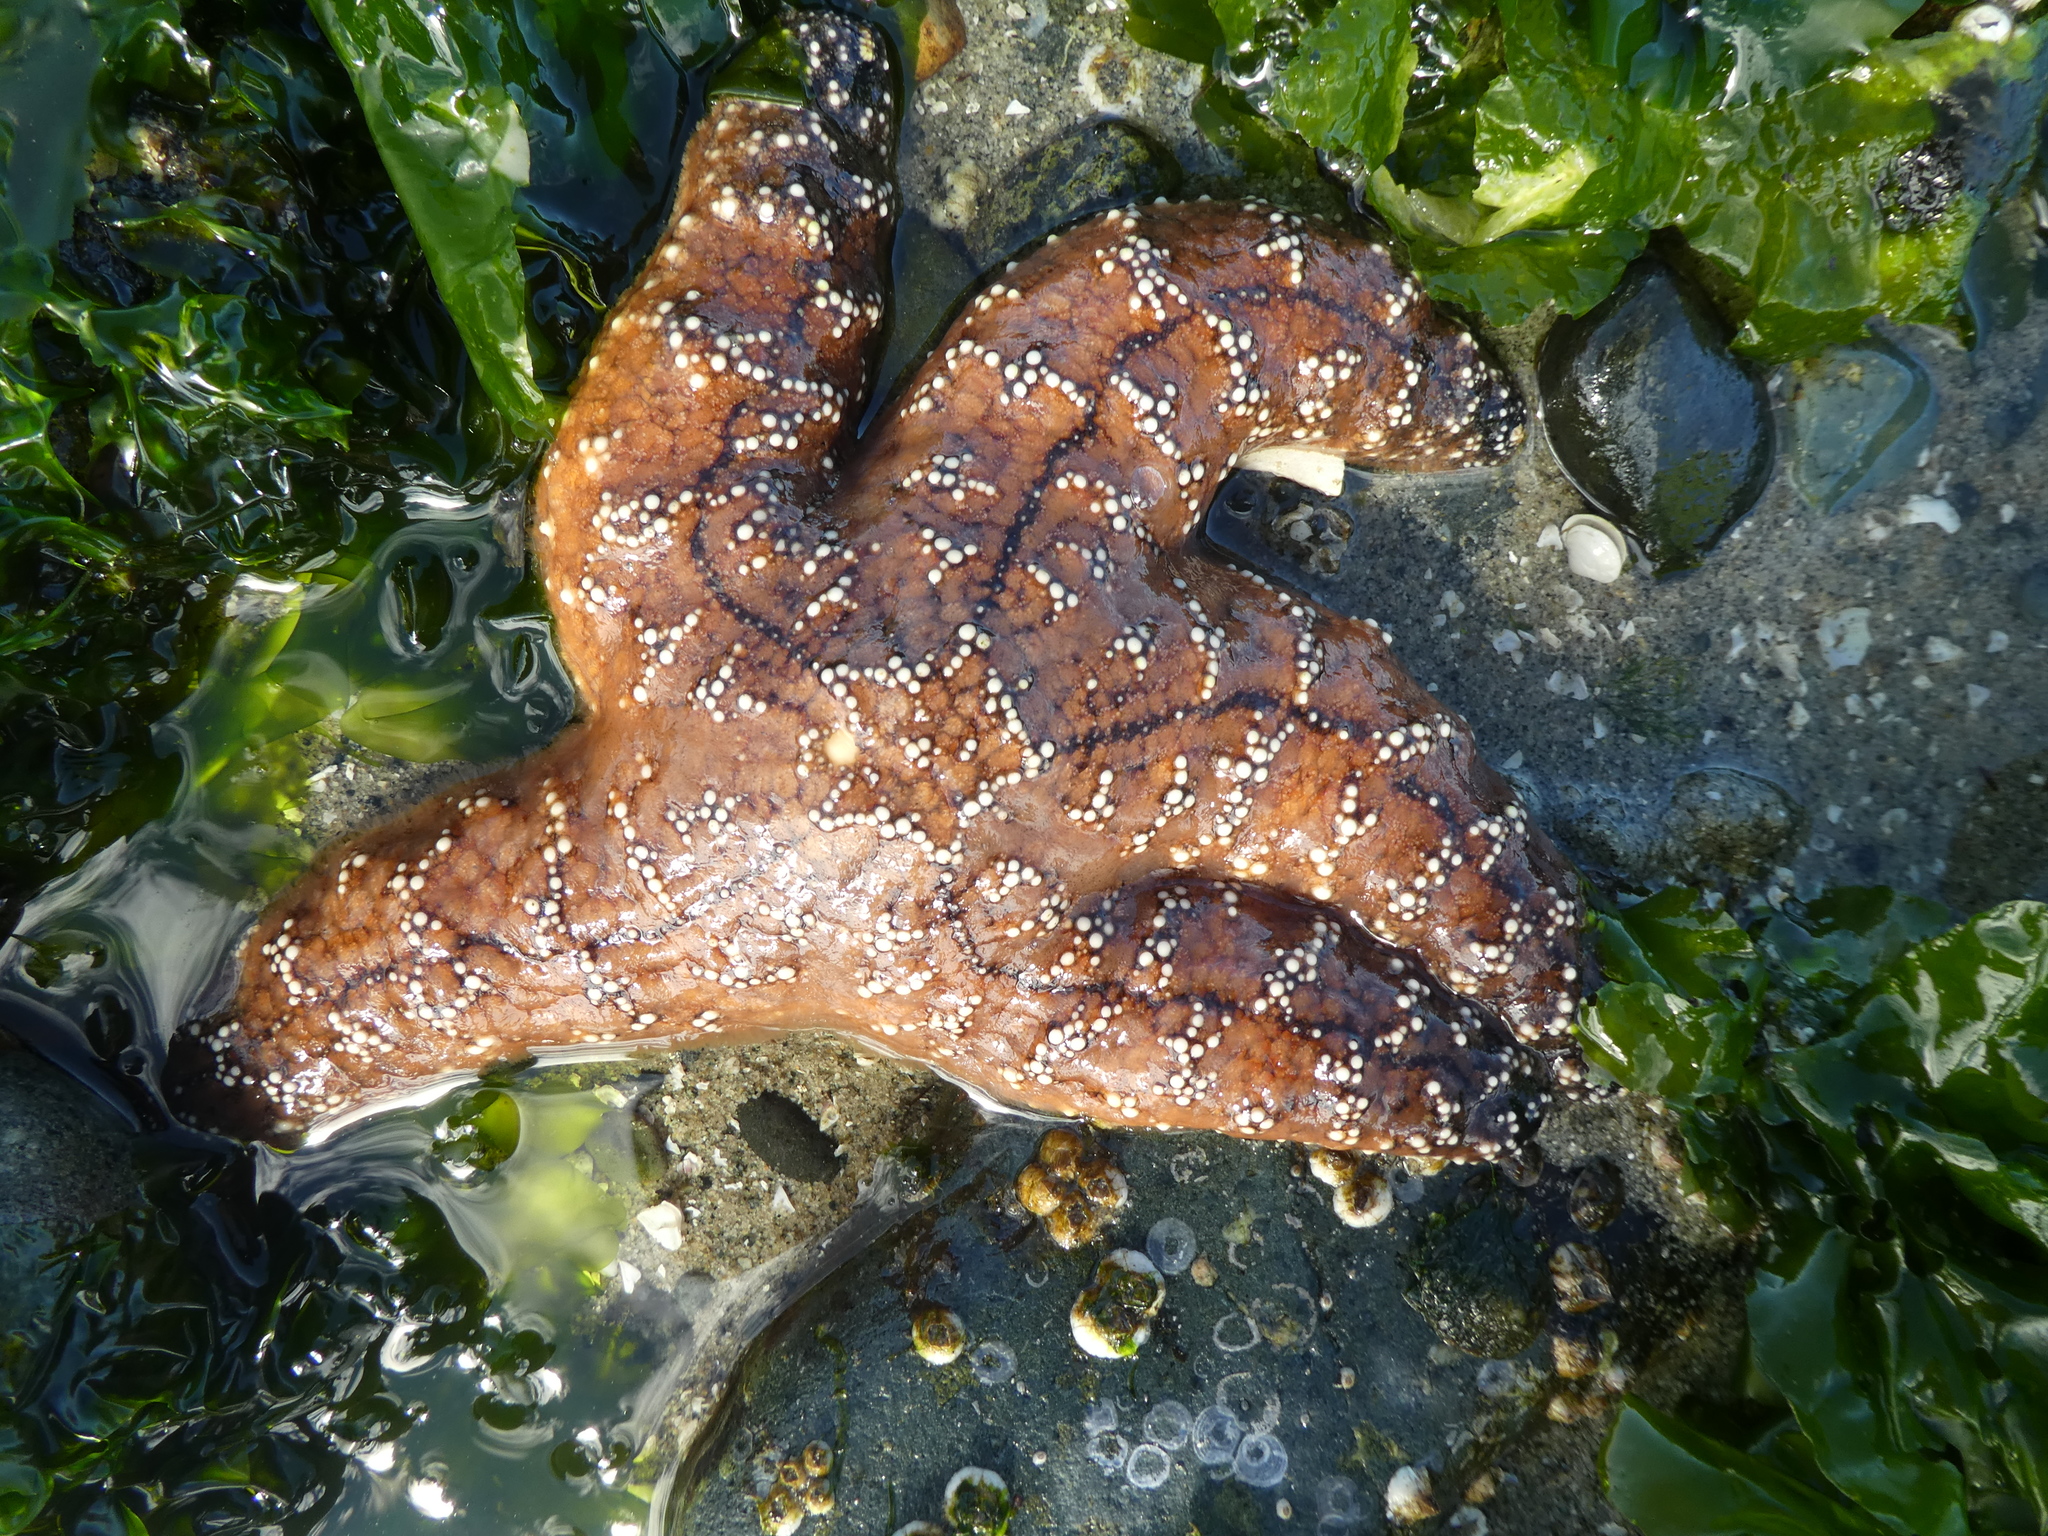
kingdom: Animalia
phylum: Echinodermata
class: Asteroidea
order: Forcipulatida
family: Asteriidae
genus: Pisaster
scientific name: Pisaster ochraceus
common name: Ochre stars
